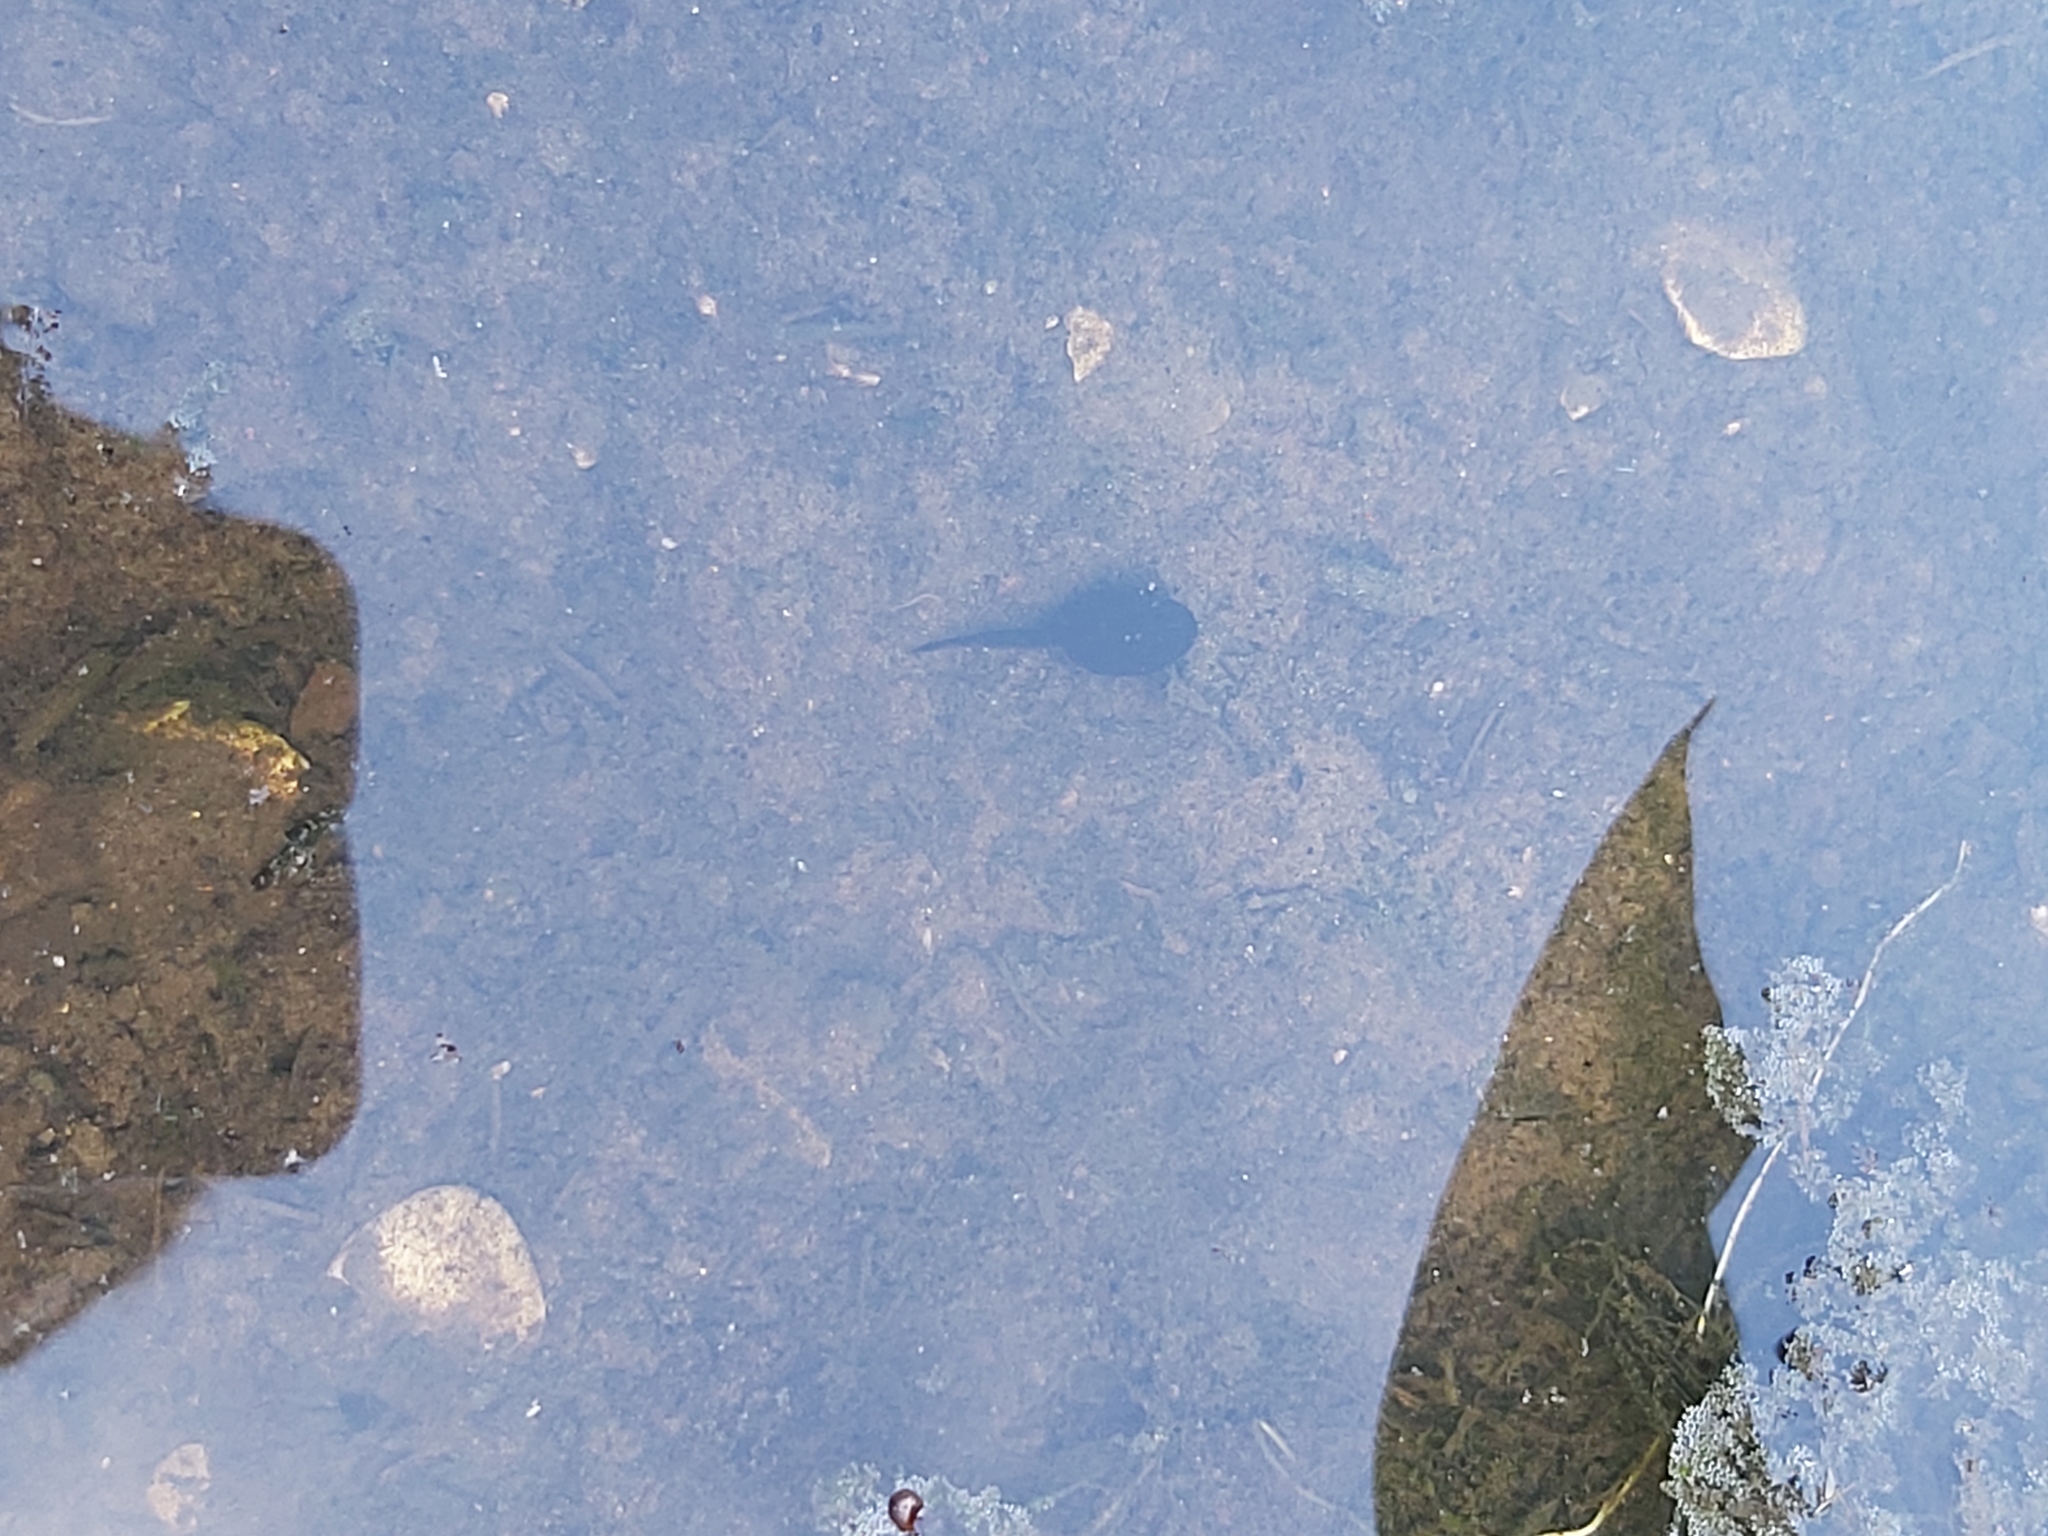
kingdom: Animalia
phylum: Chordata
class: Amphibia
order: Anura
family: Ranidae
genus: Rana
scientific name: Rana temporaria
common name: Common frog
